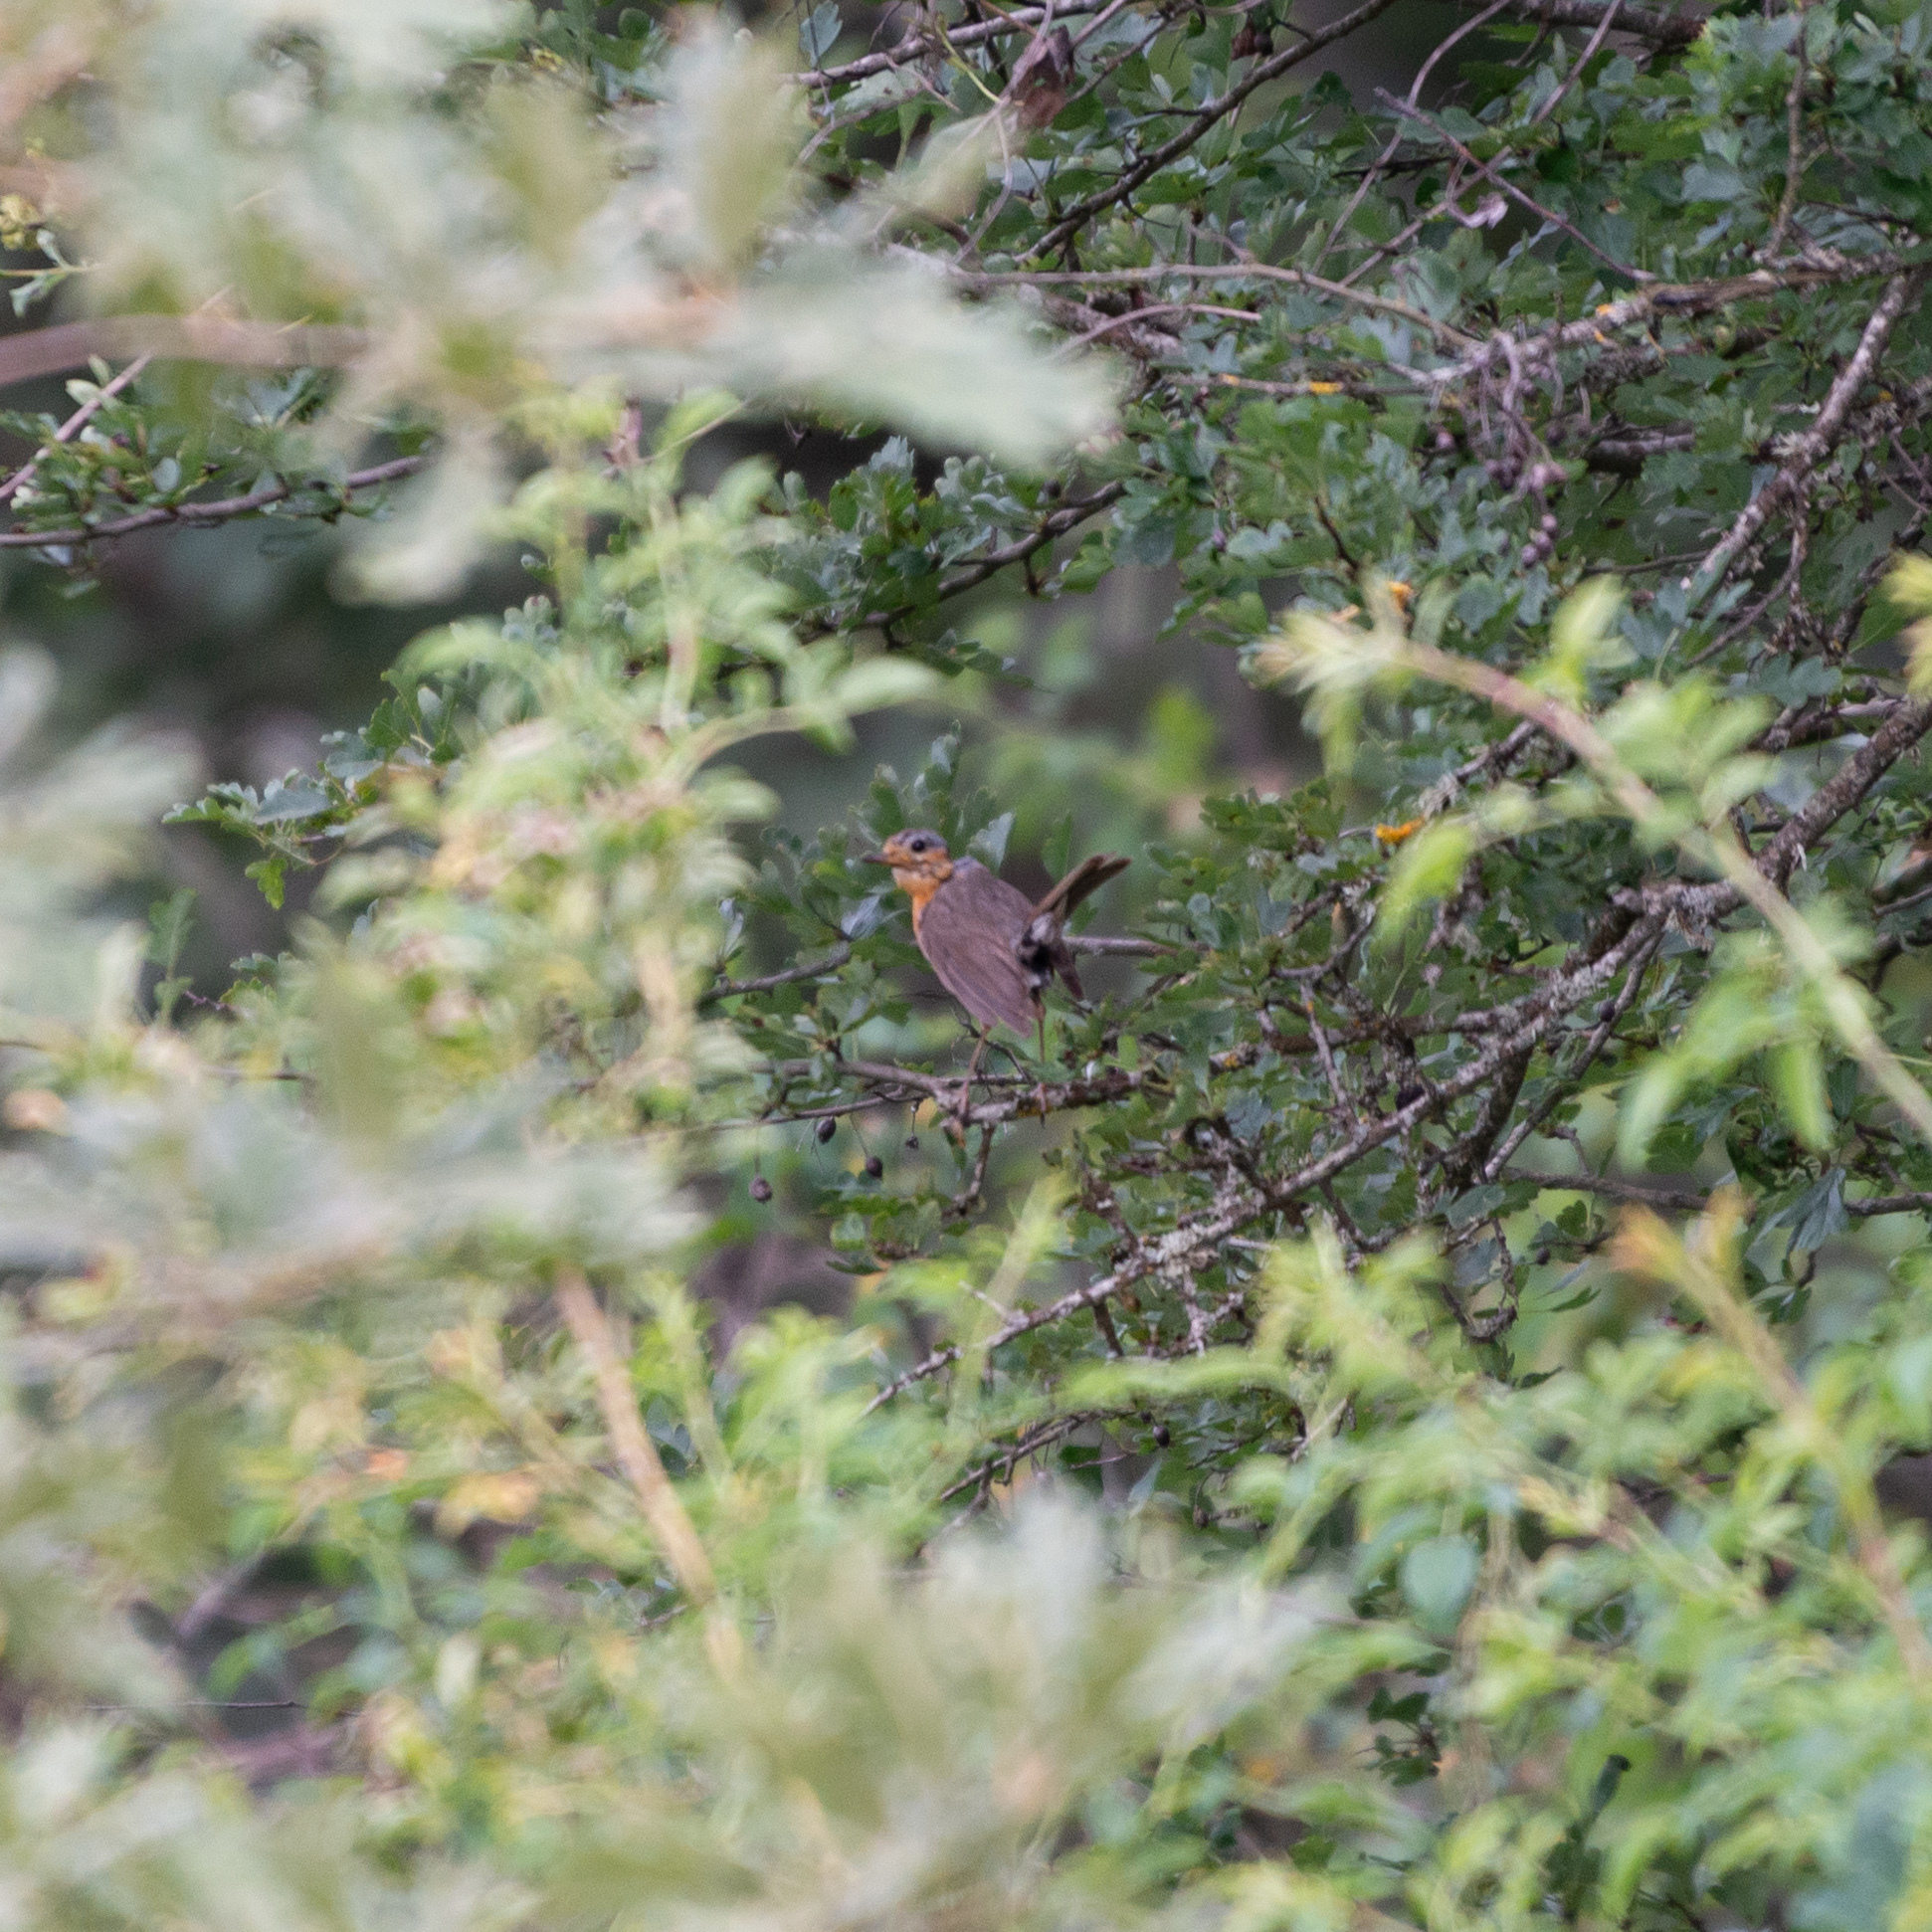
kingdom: Animalia
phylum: Chordata
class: Aves
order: Passeriformes
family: Muscicapidae
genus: Erithacus
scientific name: Erithacus rubecula
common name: European robin
